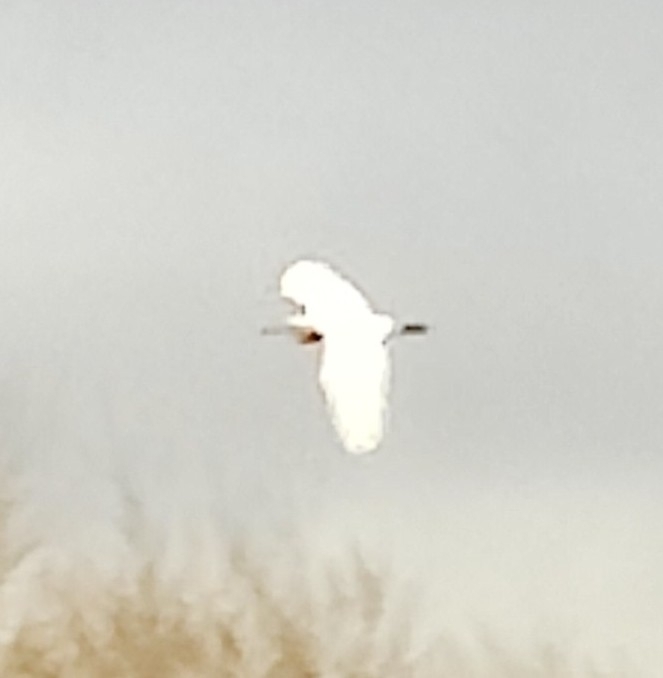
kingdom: Animalia
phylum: Chordata
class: Aves
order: Pelecaniformes
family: Ardeidae
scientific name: Ardeidae
